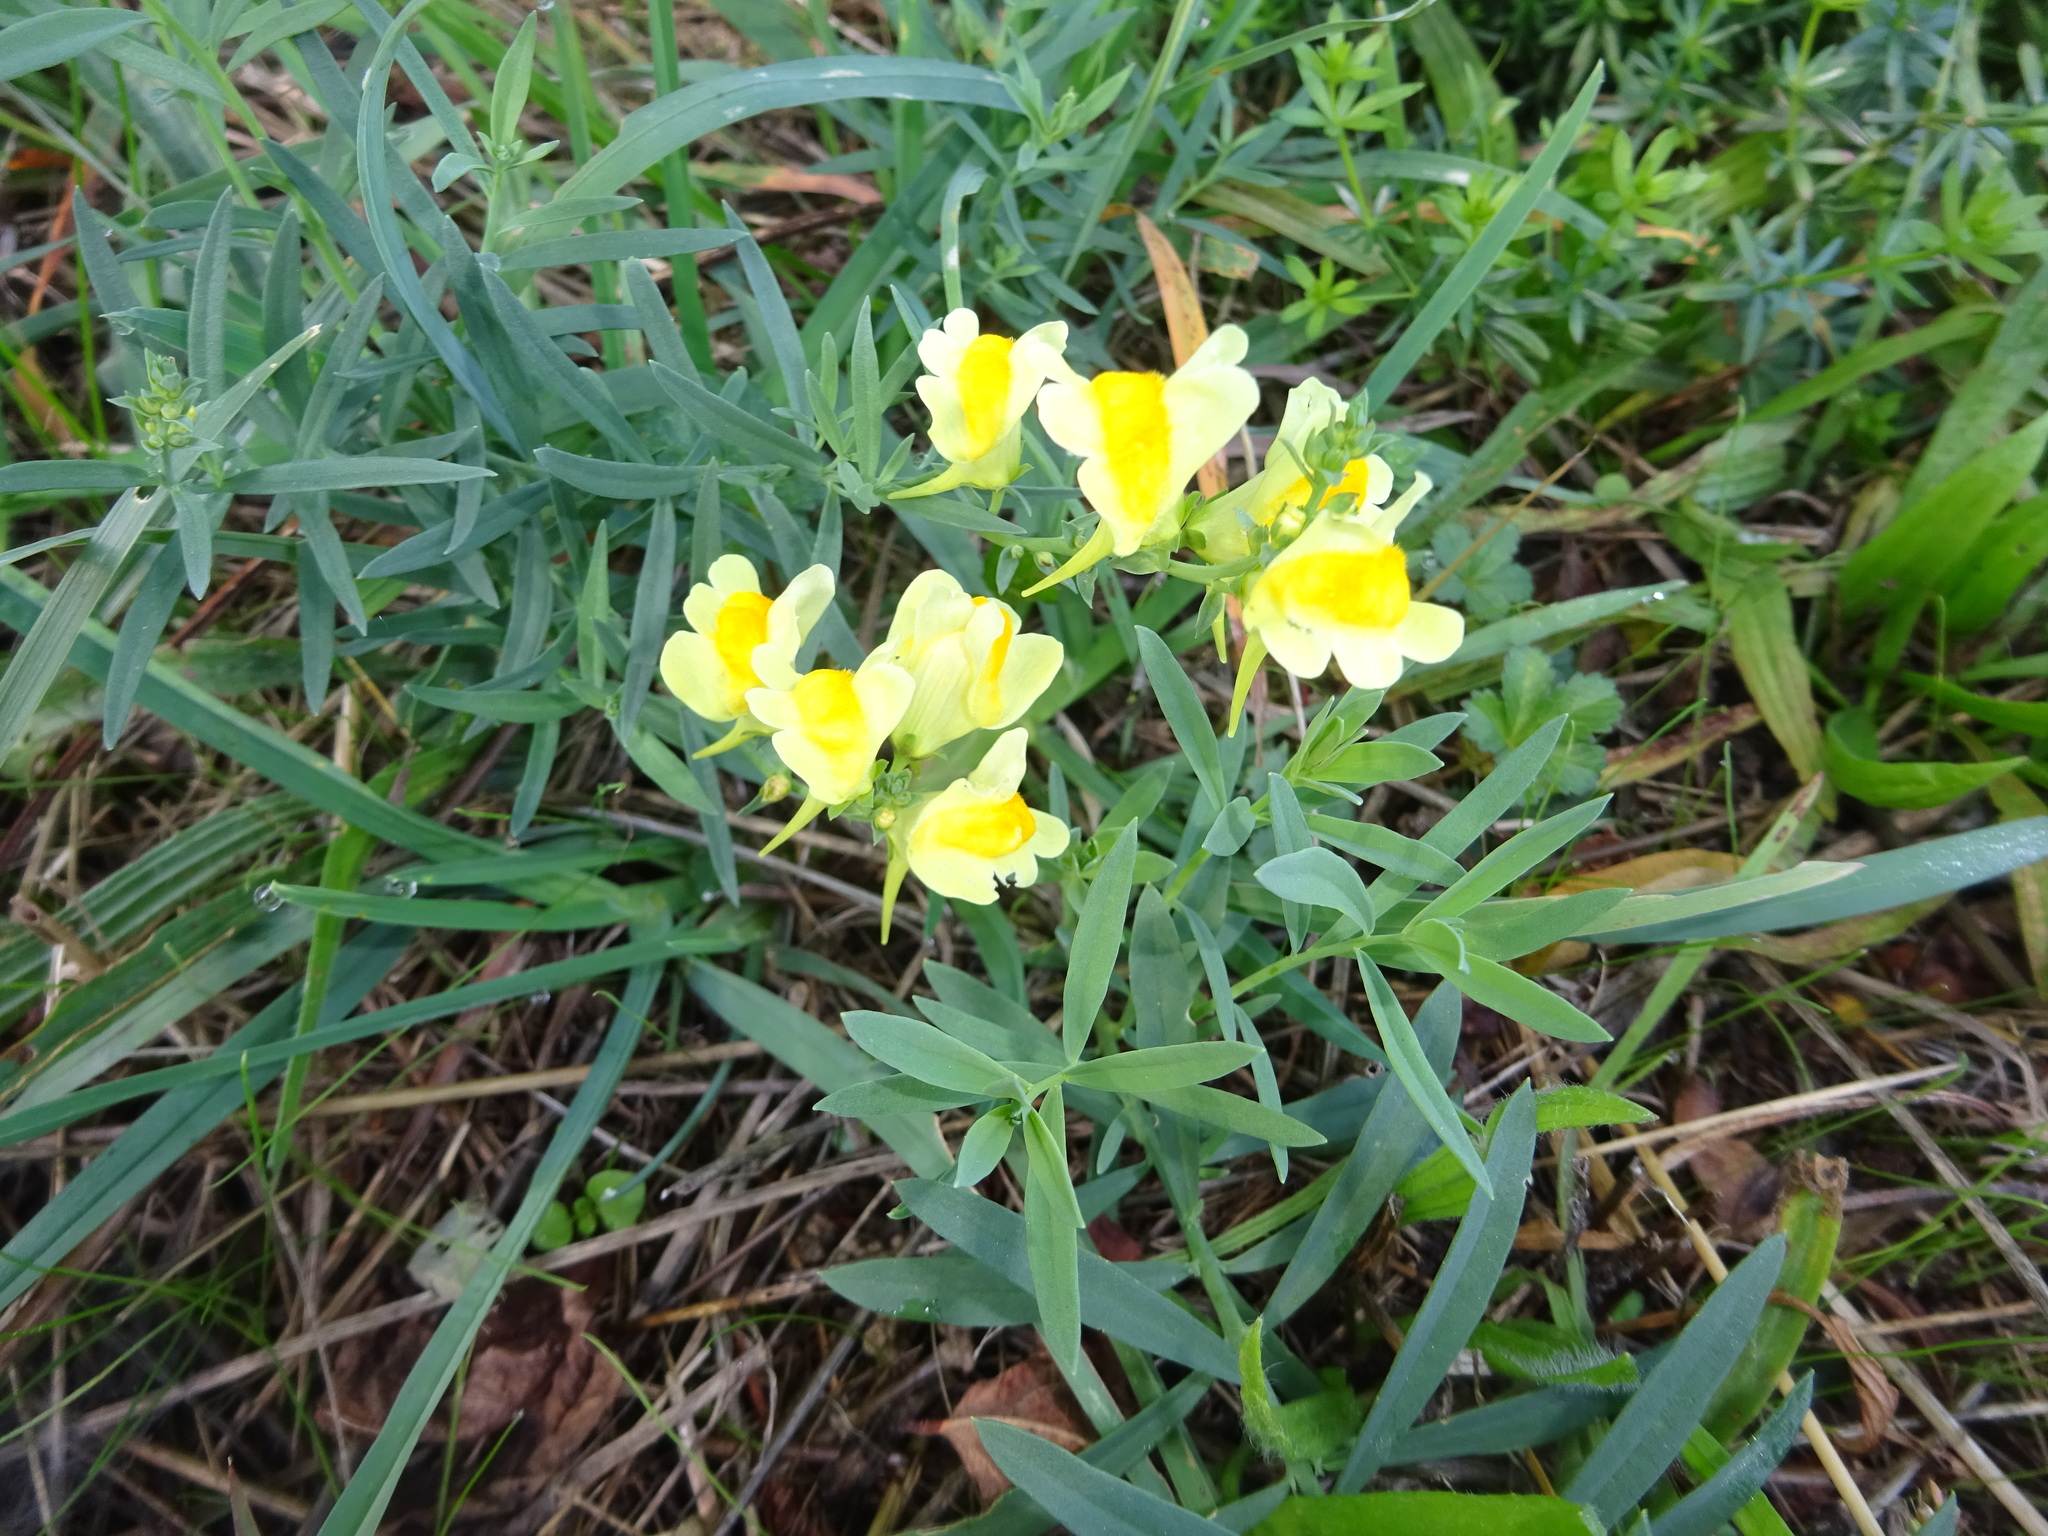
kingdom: Plantae
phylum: Tracheophyta
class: Magnoliopsida
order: Lamiales
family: Plantaginaceae
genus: Linaria
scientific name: Linaria vulgaris
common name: Butter and eggs
